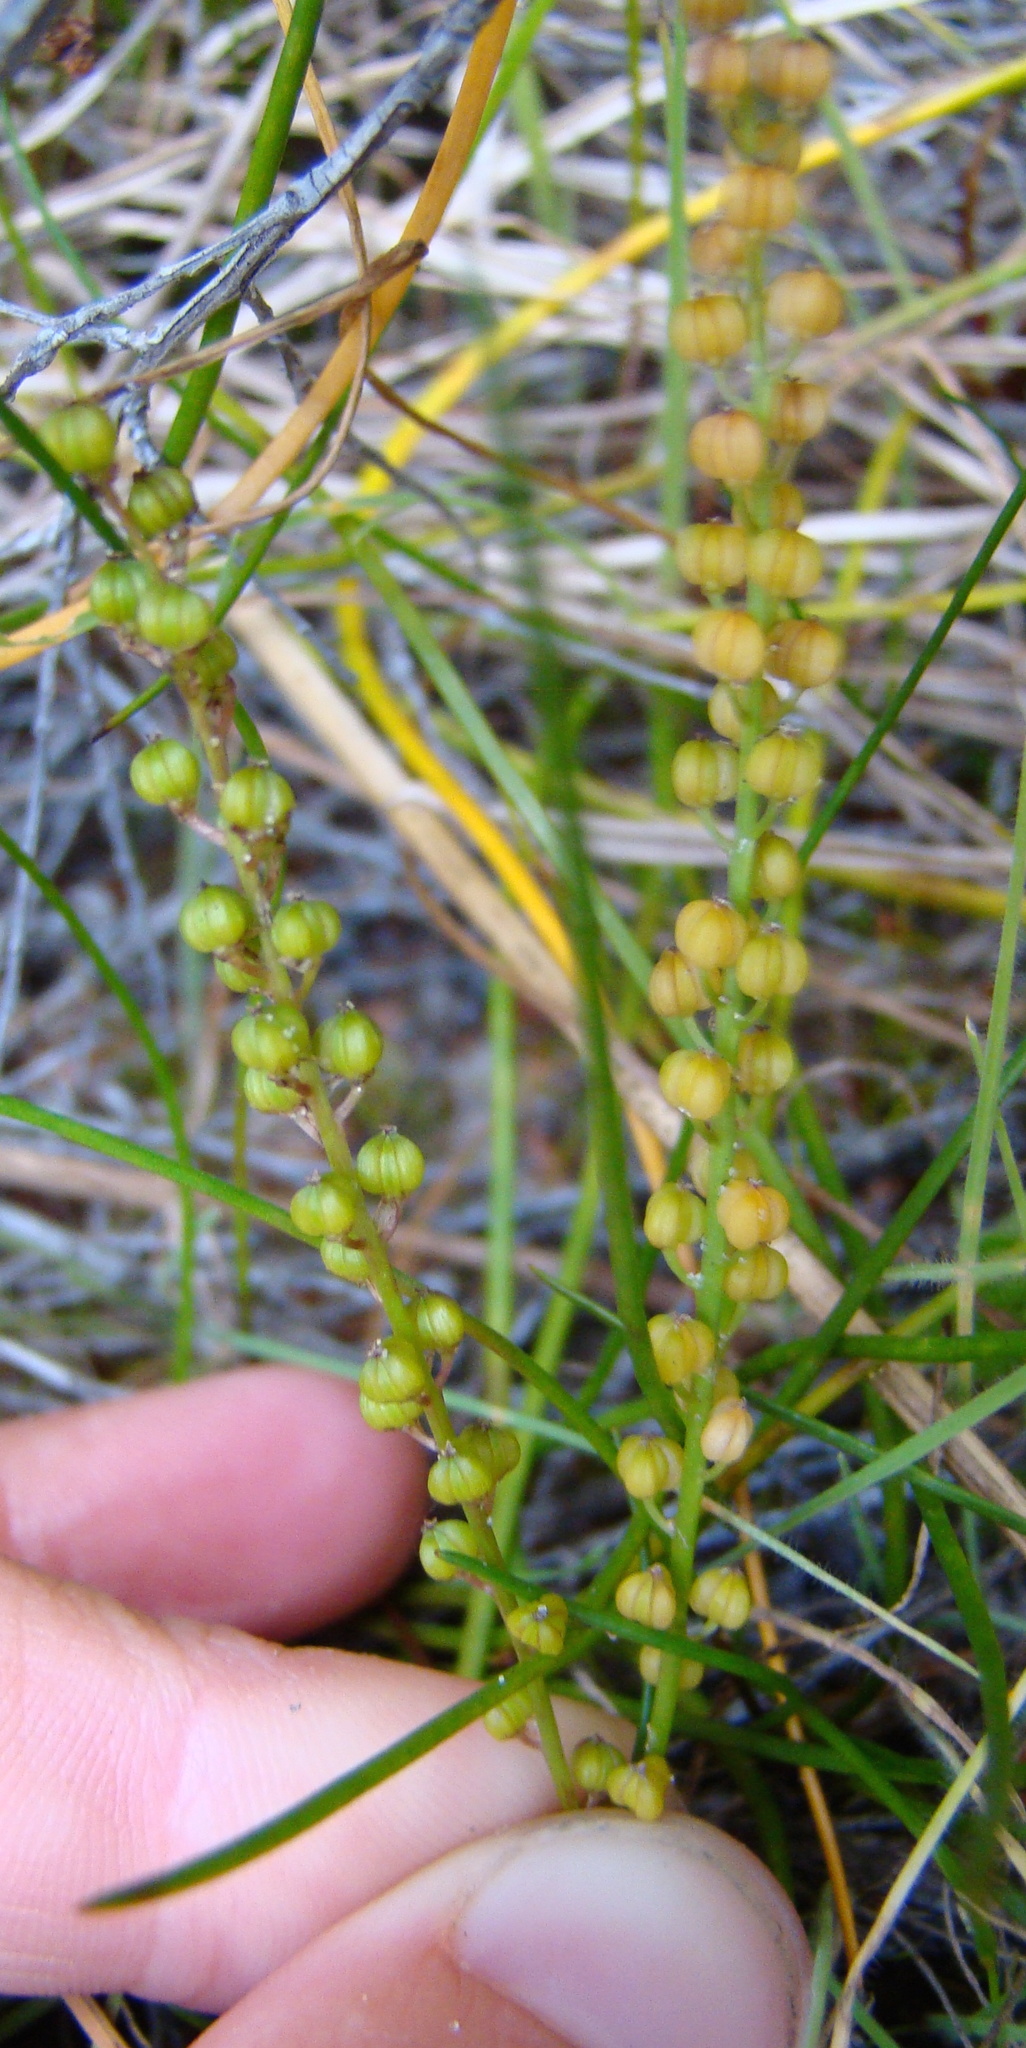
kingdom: Plantae
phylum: Tracheophyta
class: Liliopsida
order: Alismatales
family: Juncaginaceae
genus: Triglochin
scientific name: Triglochin striata
